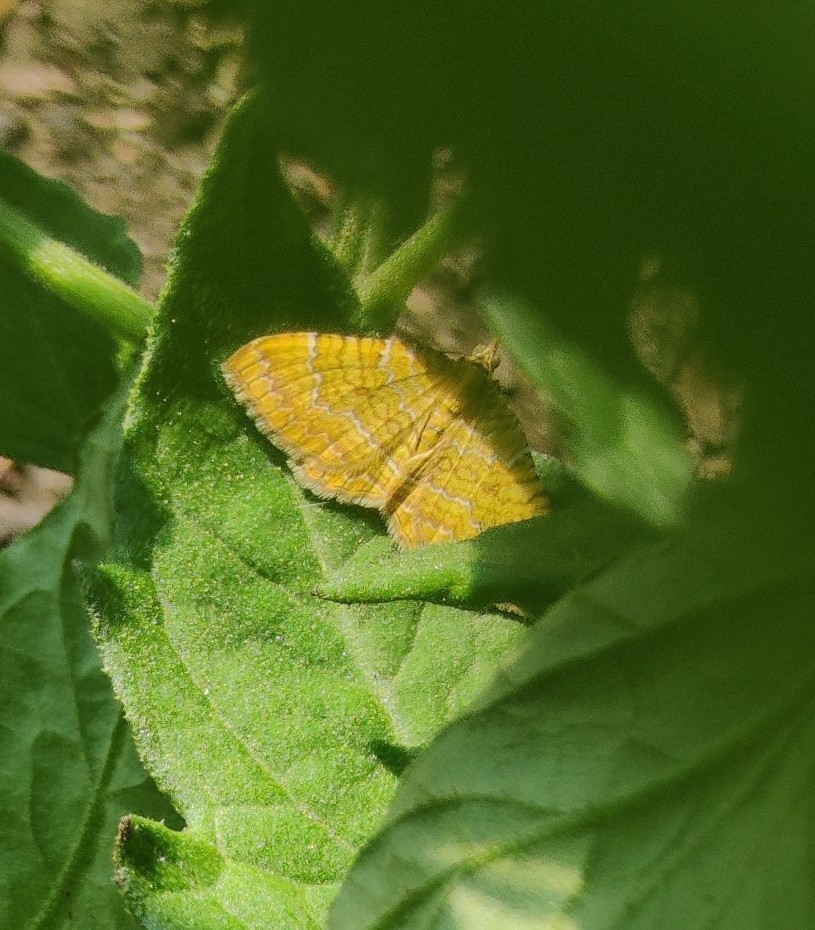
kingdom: Animalia
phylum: Arthropoda
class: Insecta
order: Lepidoptera
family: Geometridae
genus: Camptogramma
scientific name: Camptogramma bilineata
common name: Yellow shell
